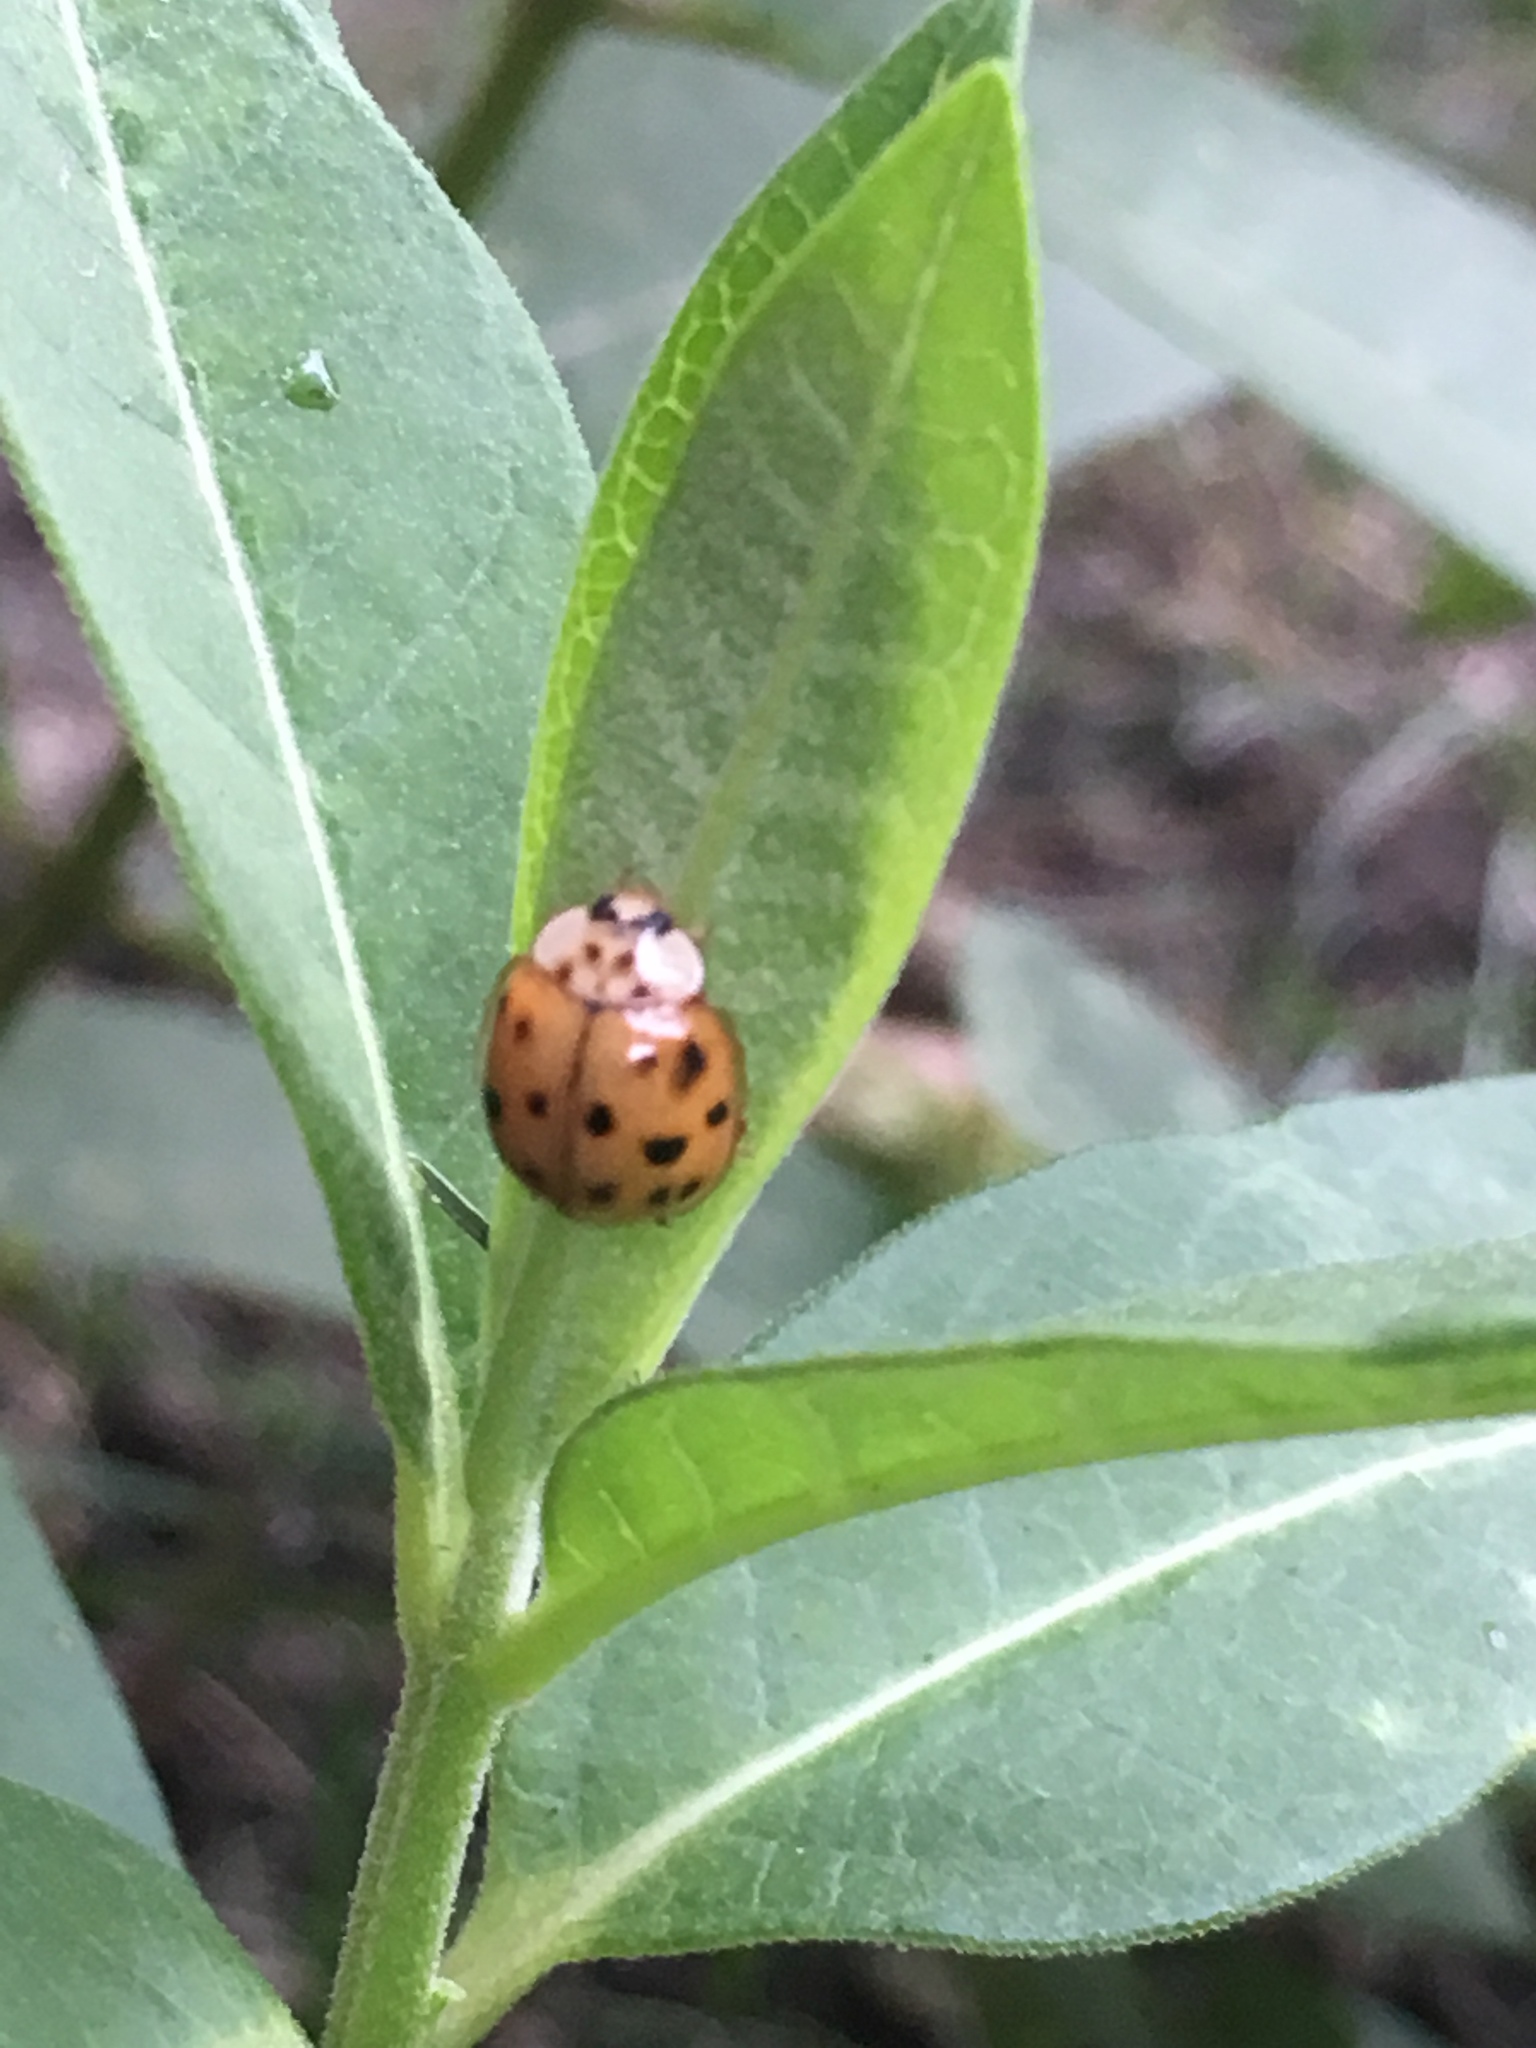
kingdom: Animalia
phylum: Arthropoda
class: Insecta
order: Coleoptera
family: Coccinellidae
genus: Harmonia
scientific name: Harmonia axyridis
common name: Harlequin ladybird
